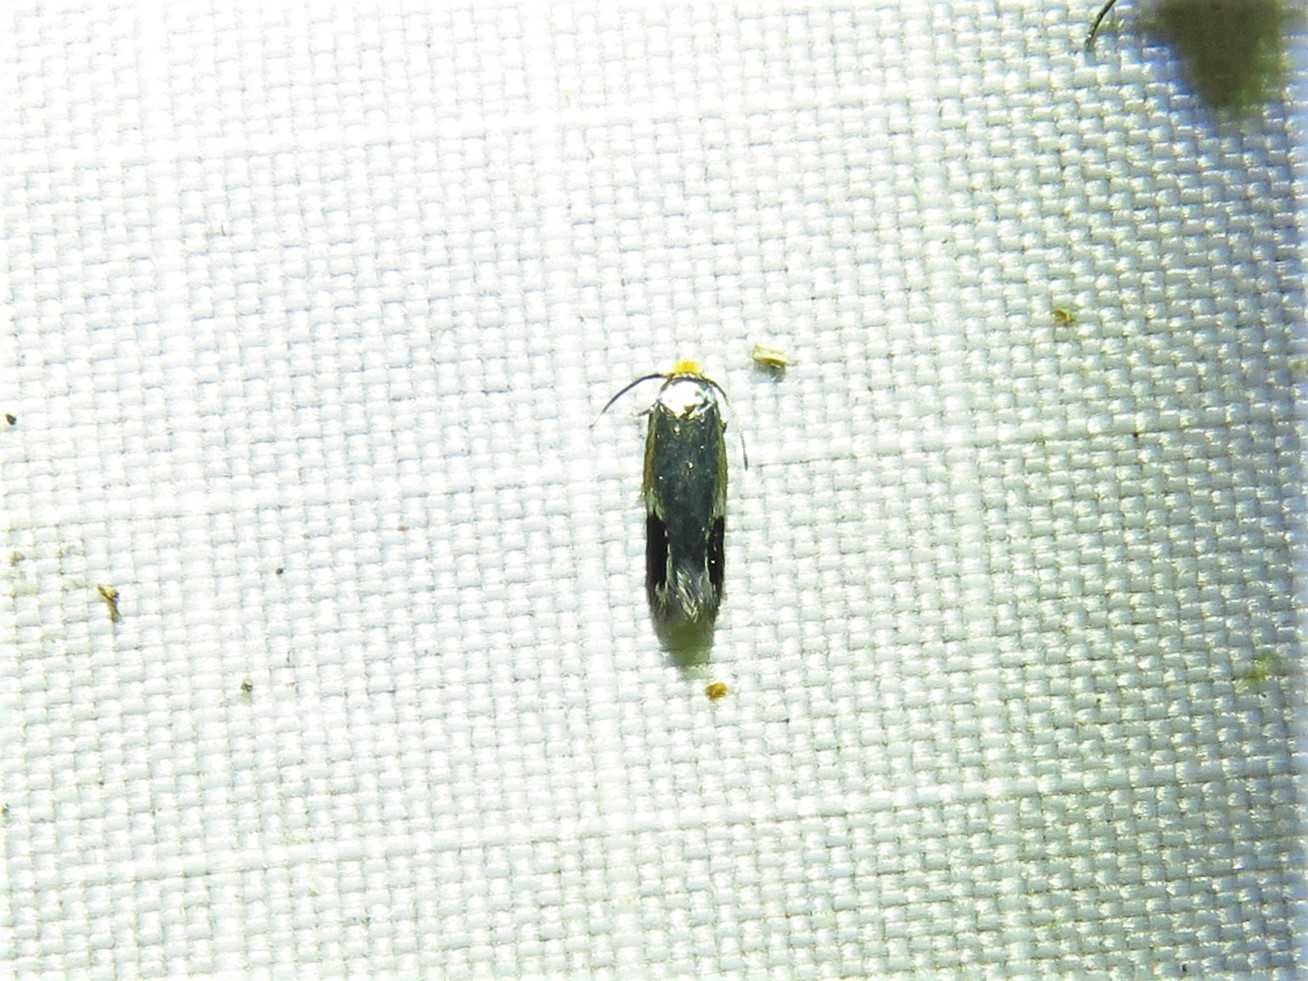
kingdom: Animalia
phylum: Arthropoda
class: Insecta
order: Lepidoptera
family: Nepticulidae
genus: Stigmella
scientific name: Stigmella resplendensella
